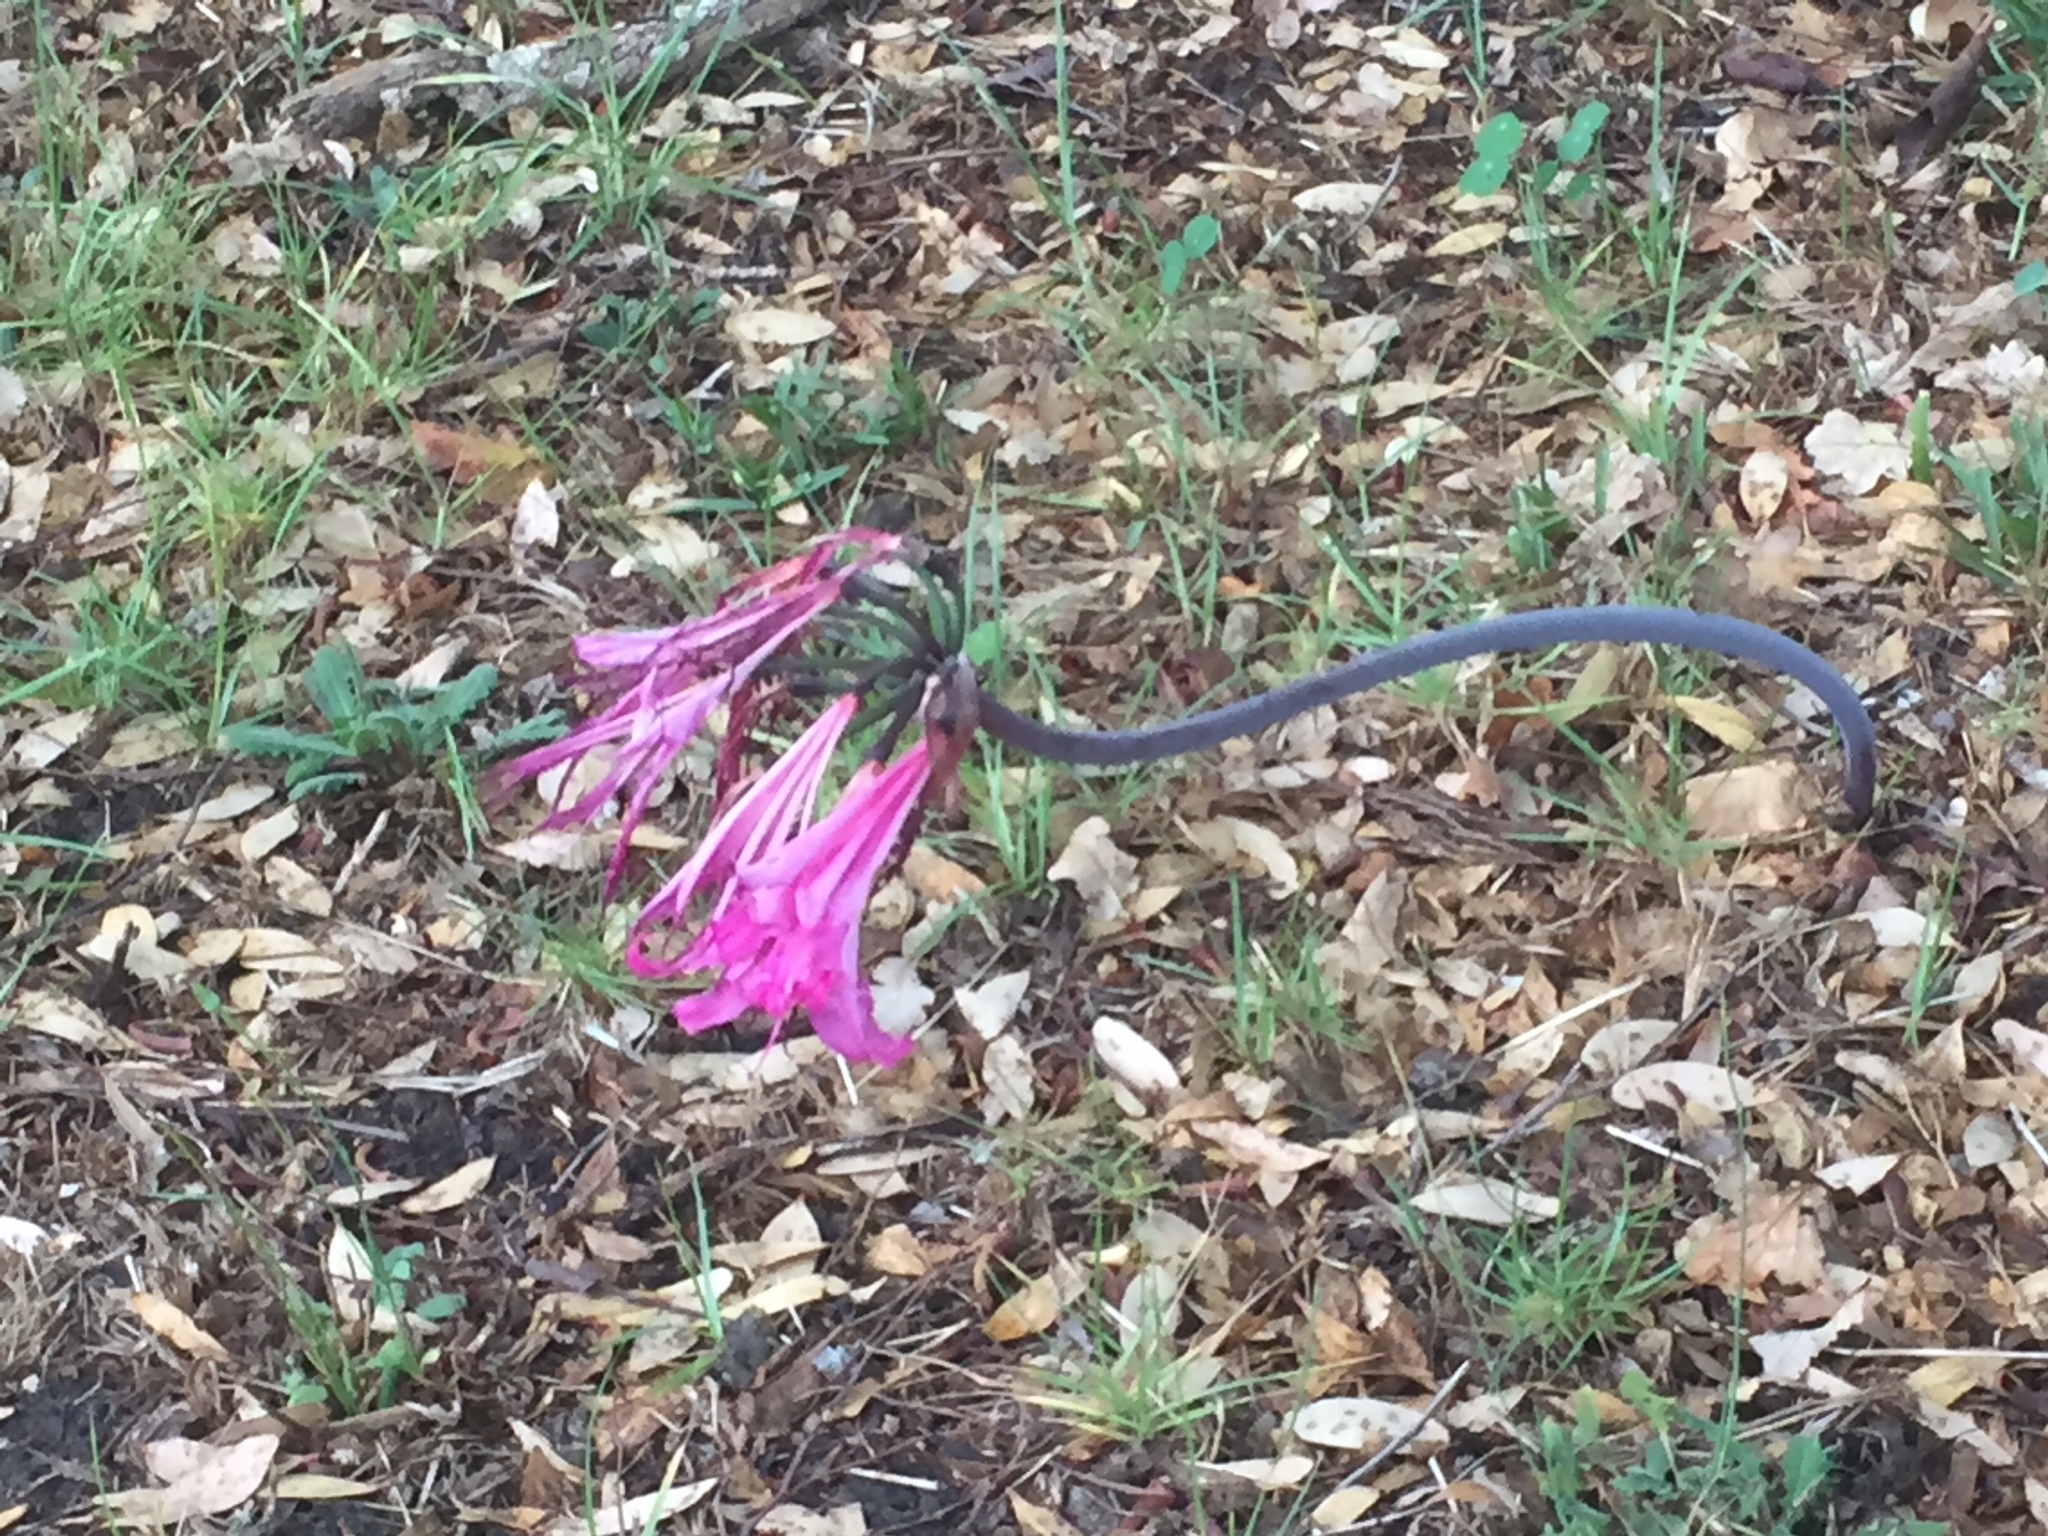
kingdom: Plantae
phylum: Tracheophyta
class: Liliopsida
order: Asparagales
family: Amaryllidaceae
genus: Amaryllis
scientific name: Amaryllis belladonna
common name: Jersey lily
